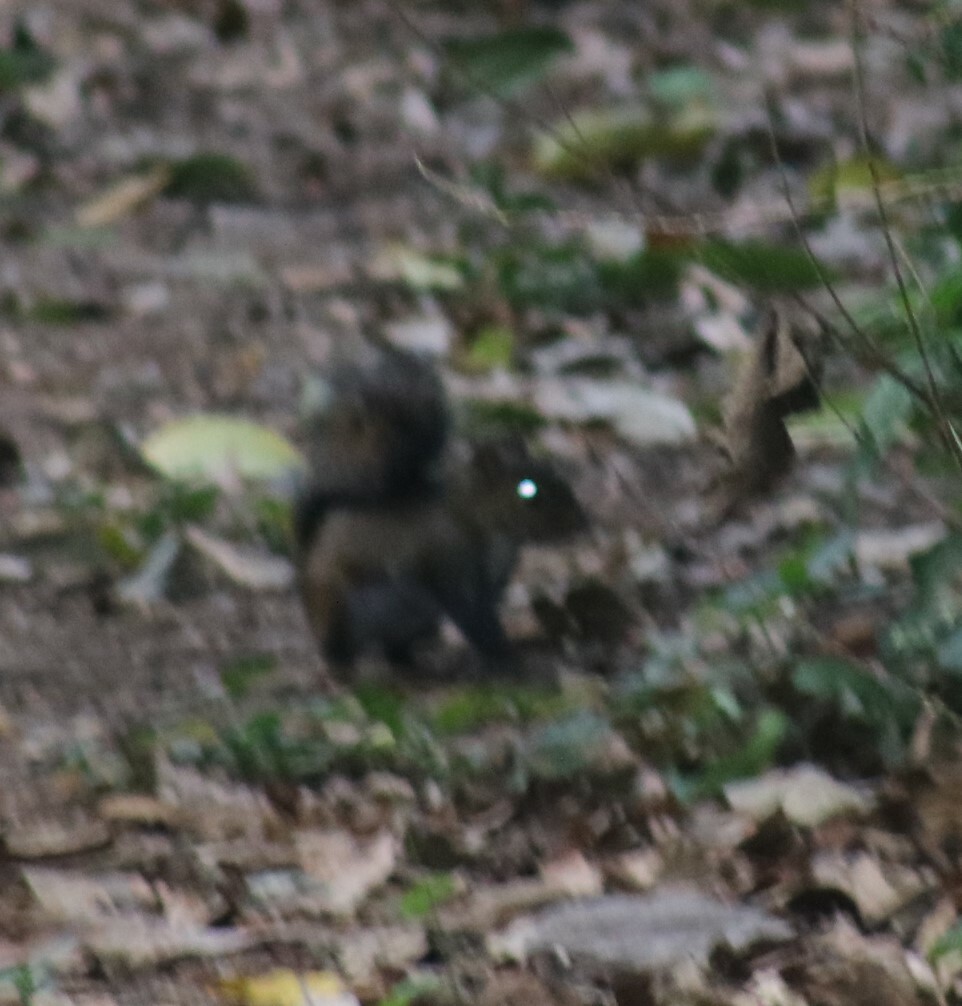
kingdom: Animalia
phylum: Chordata
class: Mammalia
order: Rodentia
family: Sciuridae
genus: Sciurus
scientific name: Sciurus deppei
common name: Deppe's squirrel
